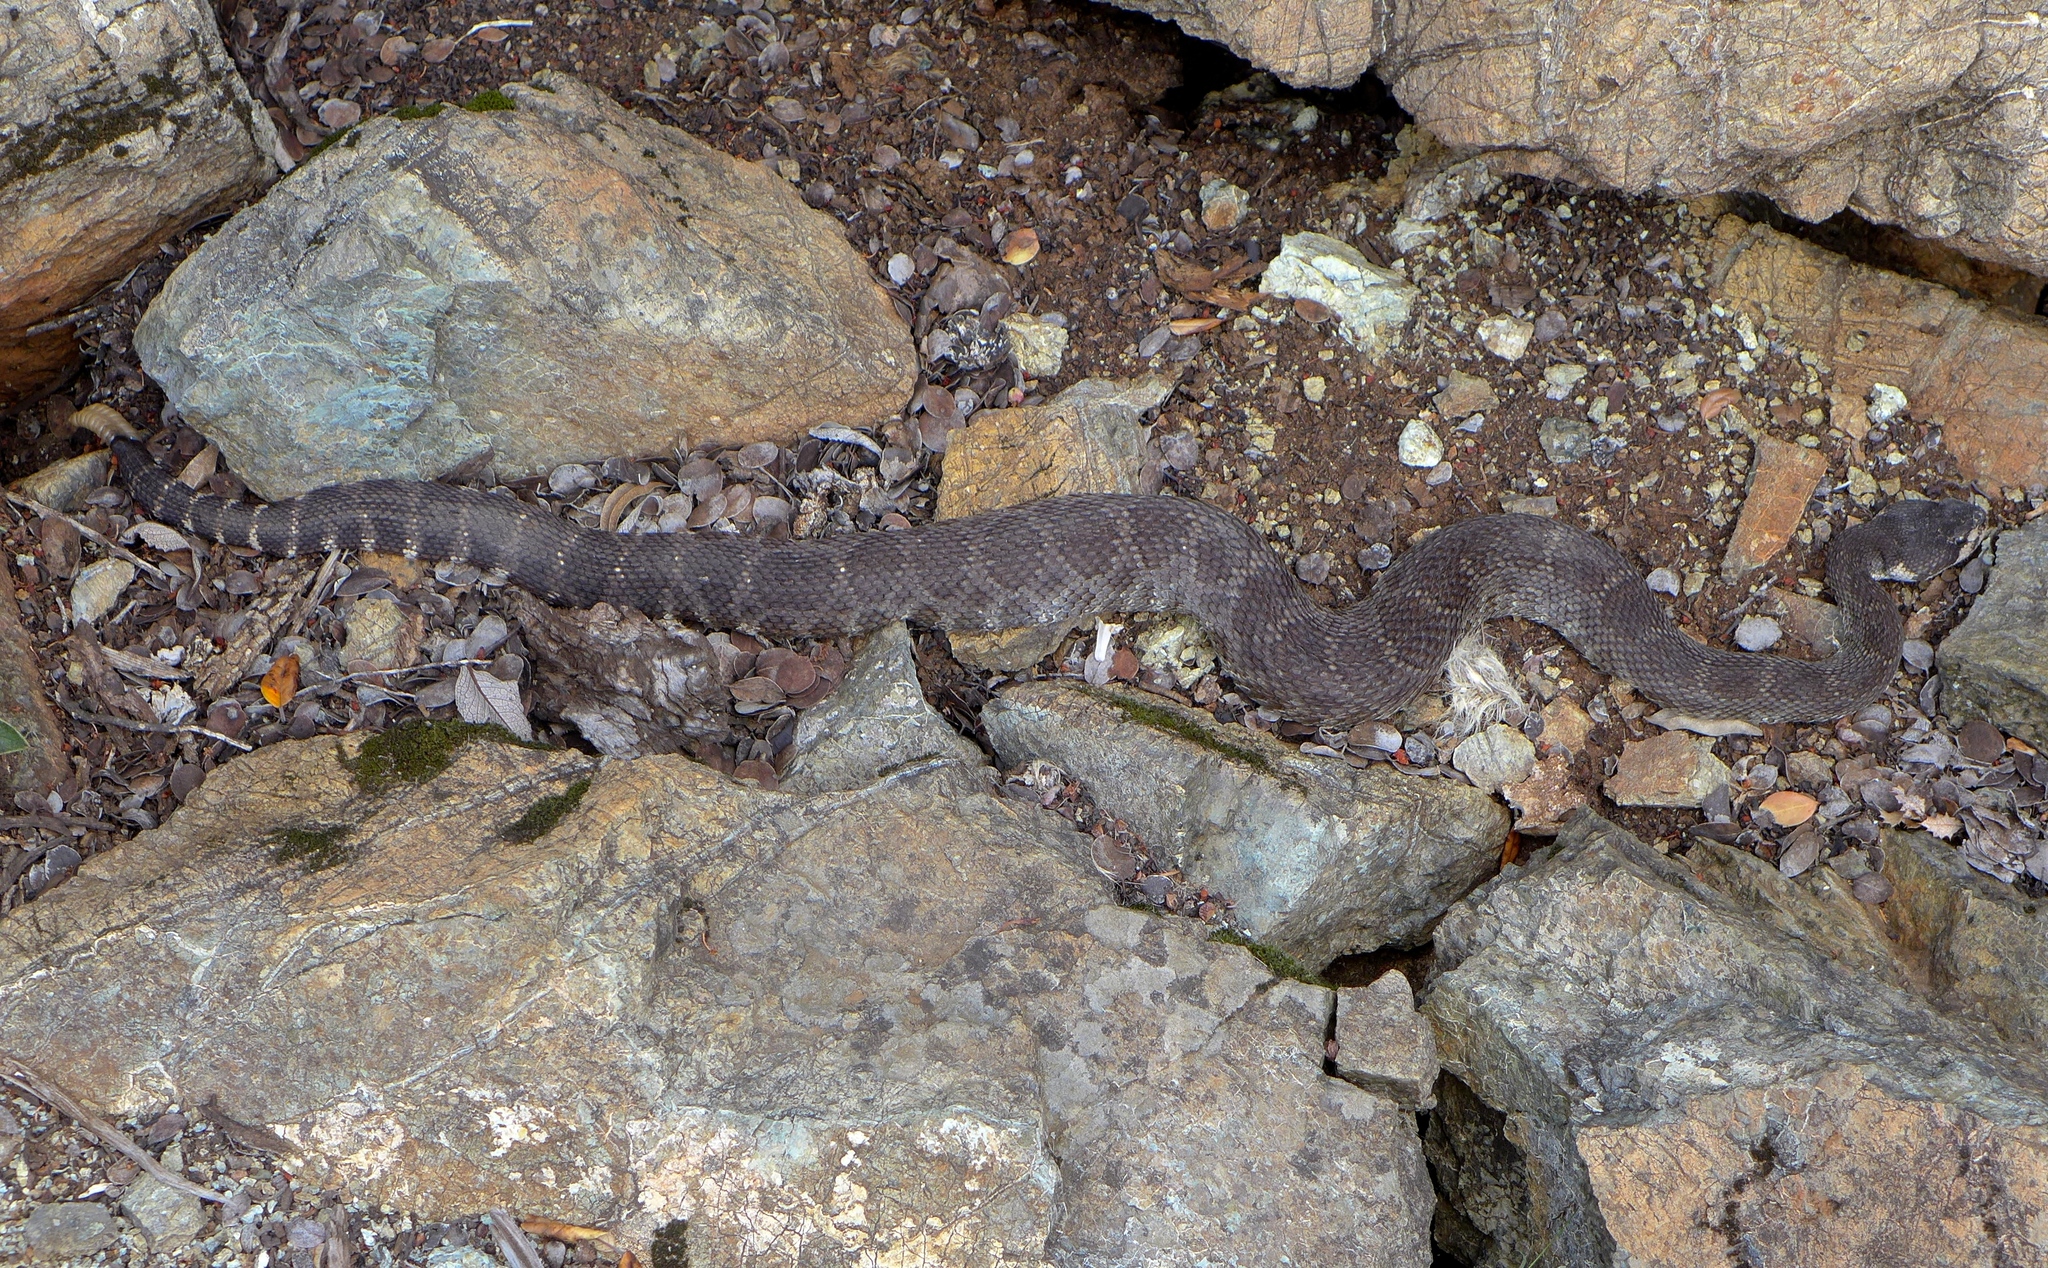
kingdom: Animalia
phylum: Chordata
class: Squamata
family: Viperidae
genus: Crotalus
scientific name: Crotalus oreganus
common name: Abyssus
